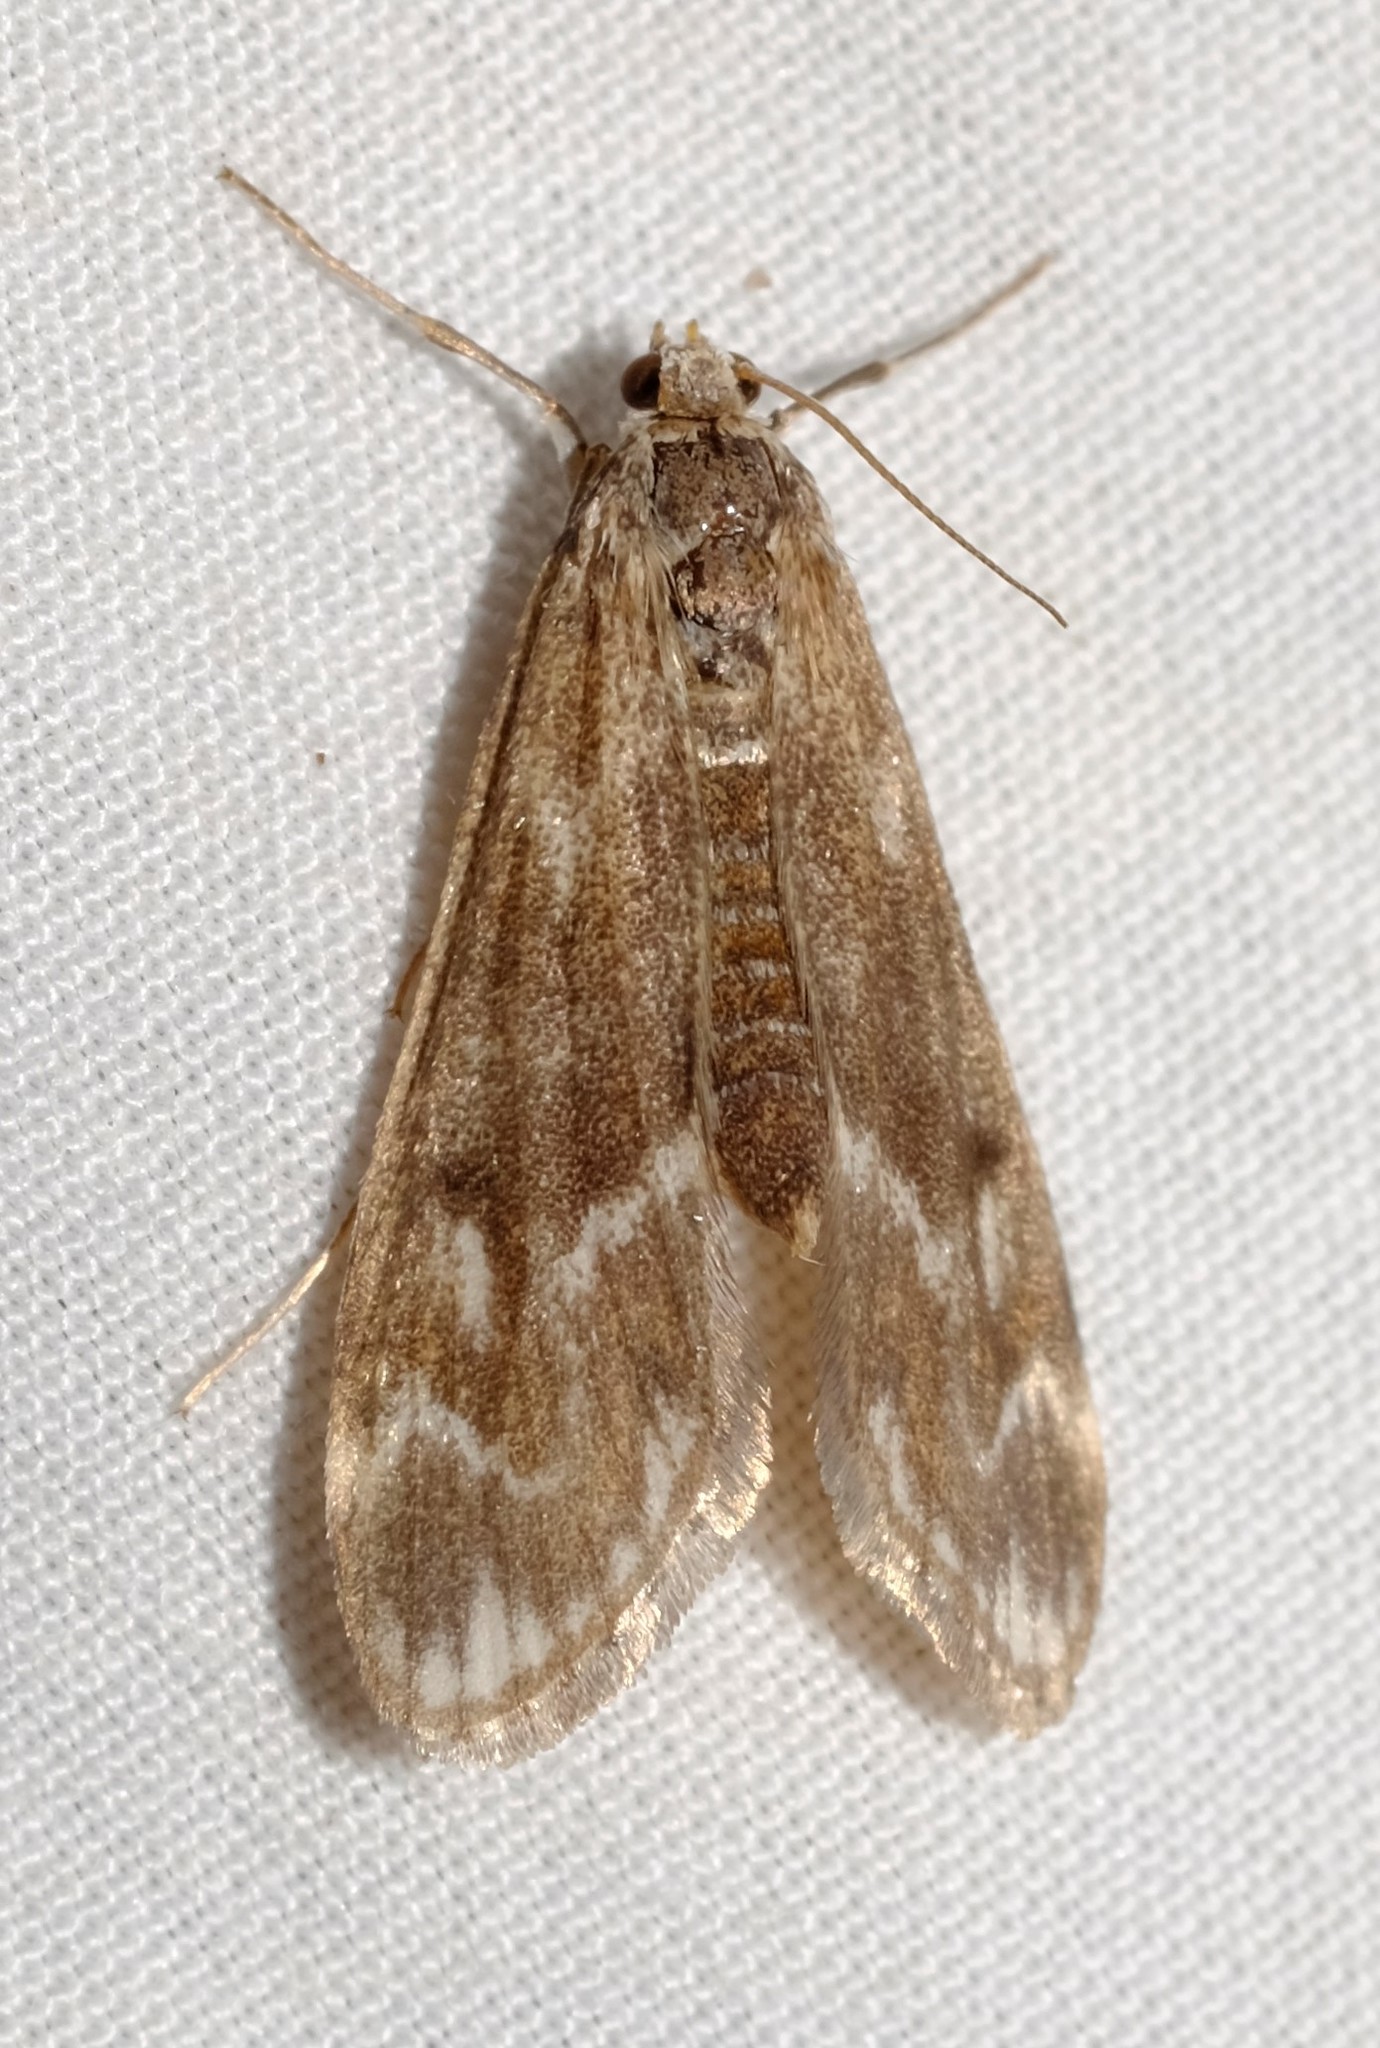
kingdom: Animalia
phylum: Arthropoda
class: Insecta
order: Lepidoptera
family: Crambidae
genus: Hygraula
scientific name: Hygraula nitens
